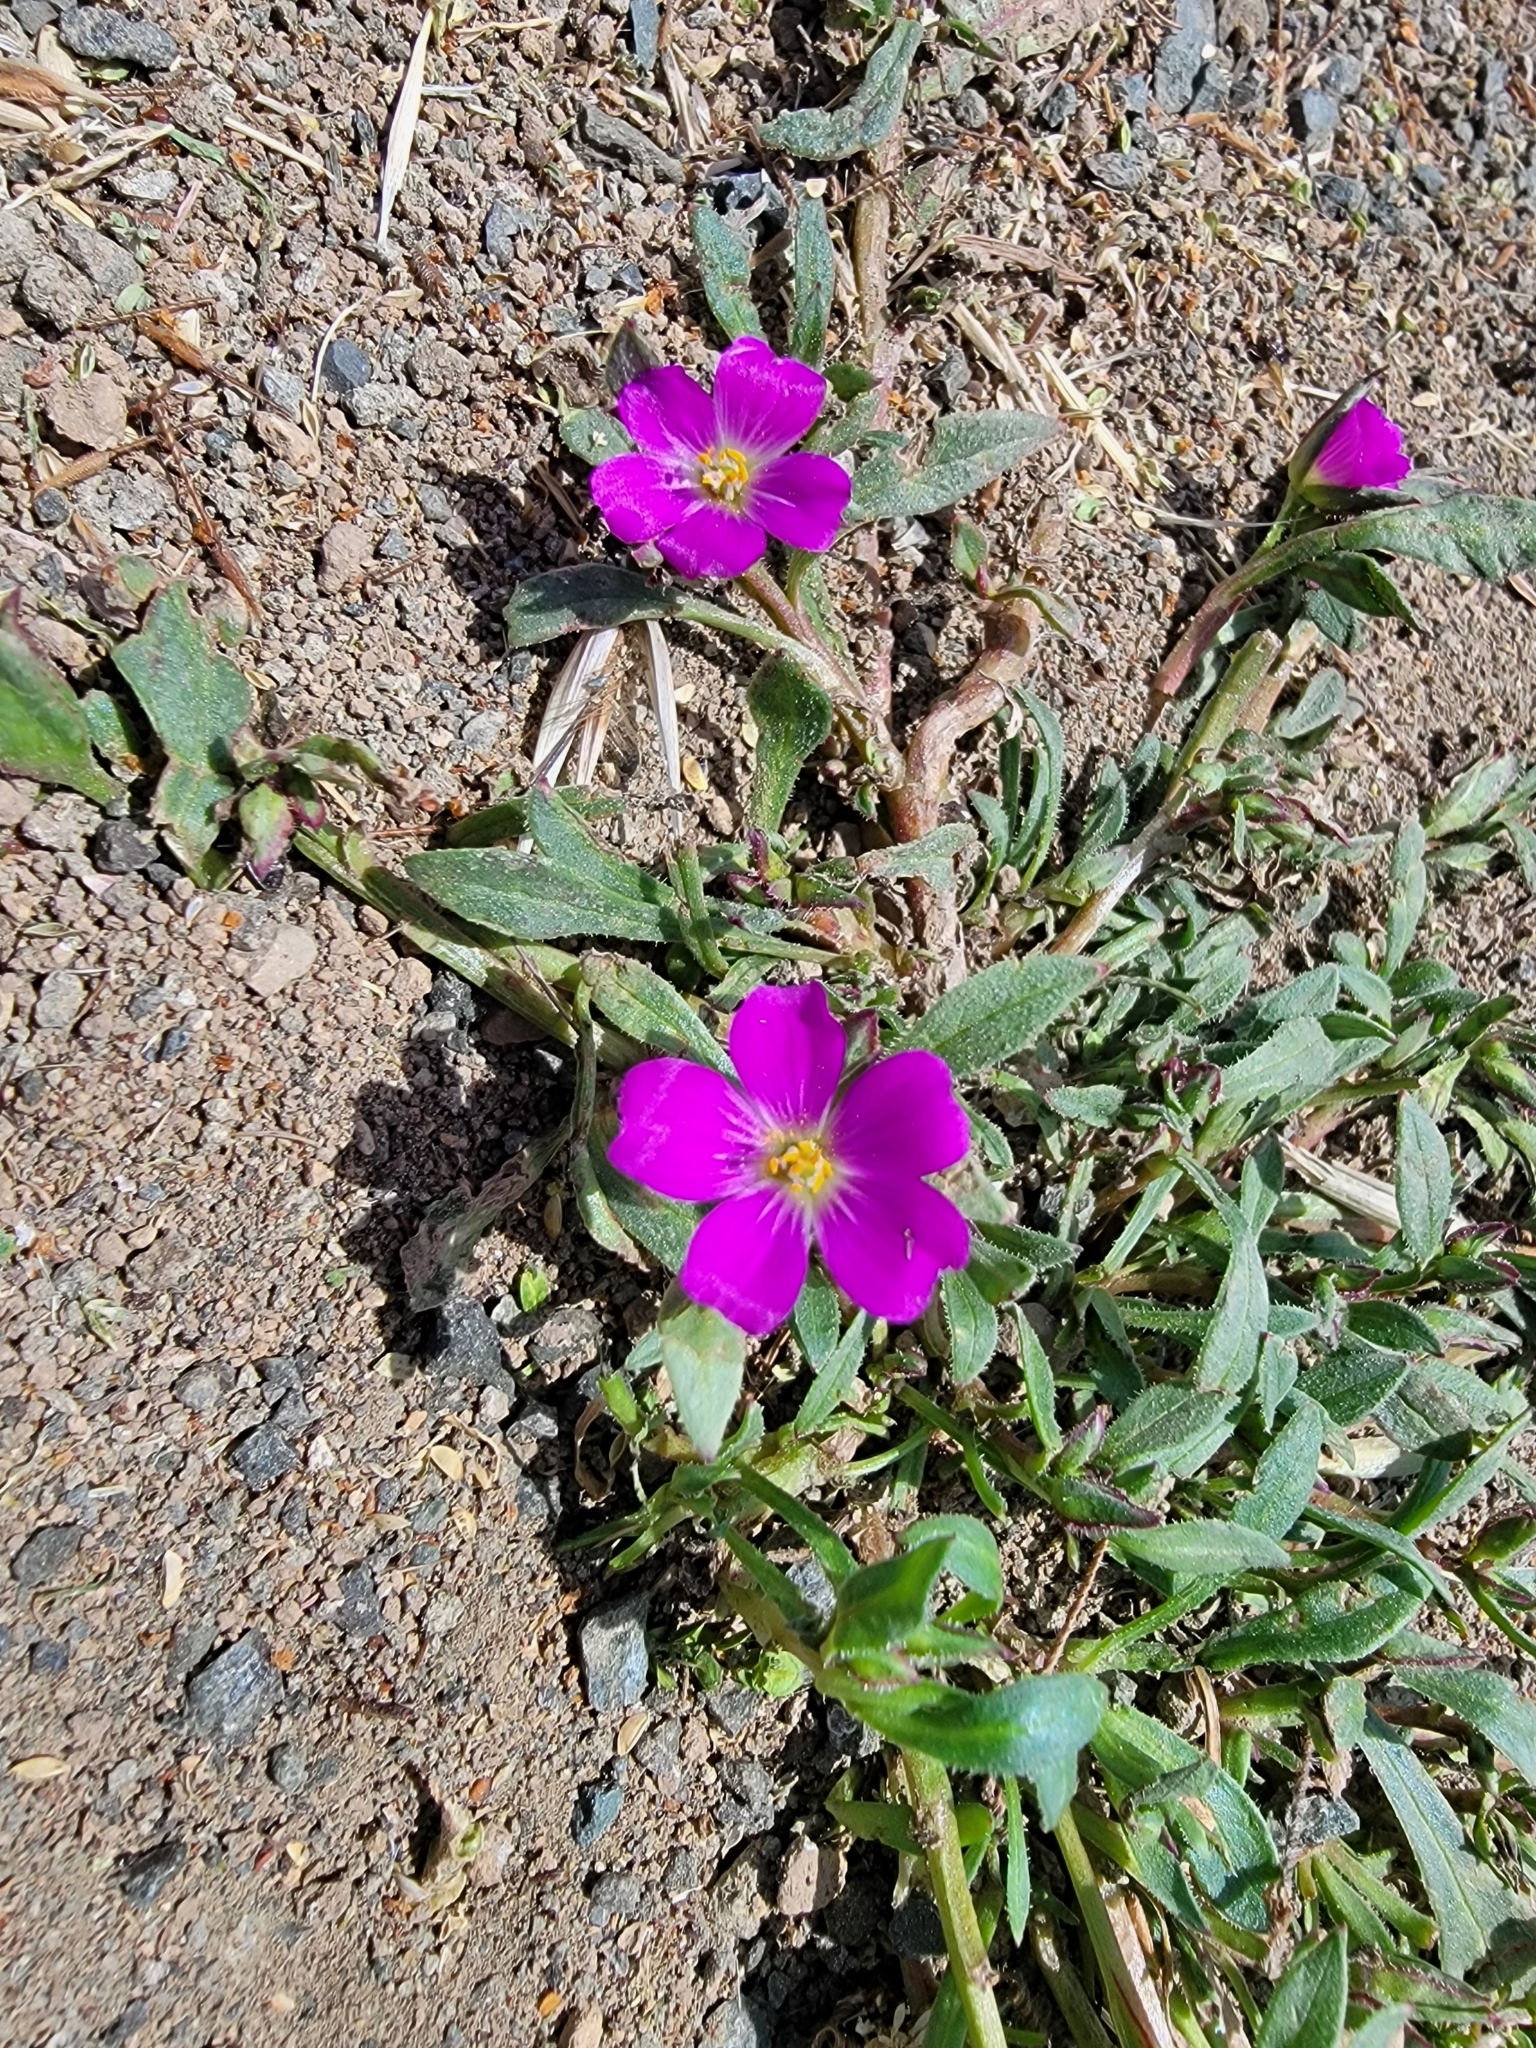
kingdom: Plantae
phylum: Tracheophyta
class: Magnoliopsida
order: Caryophyllales
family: Montiaceae
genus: Calandrinia
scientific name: Calandrinia menziesii
